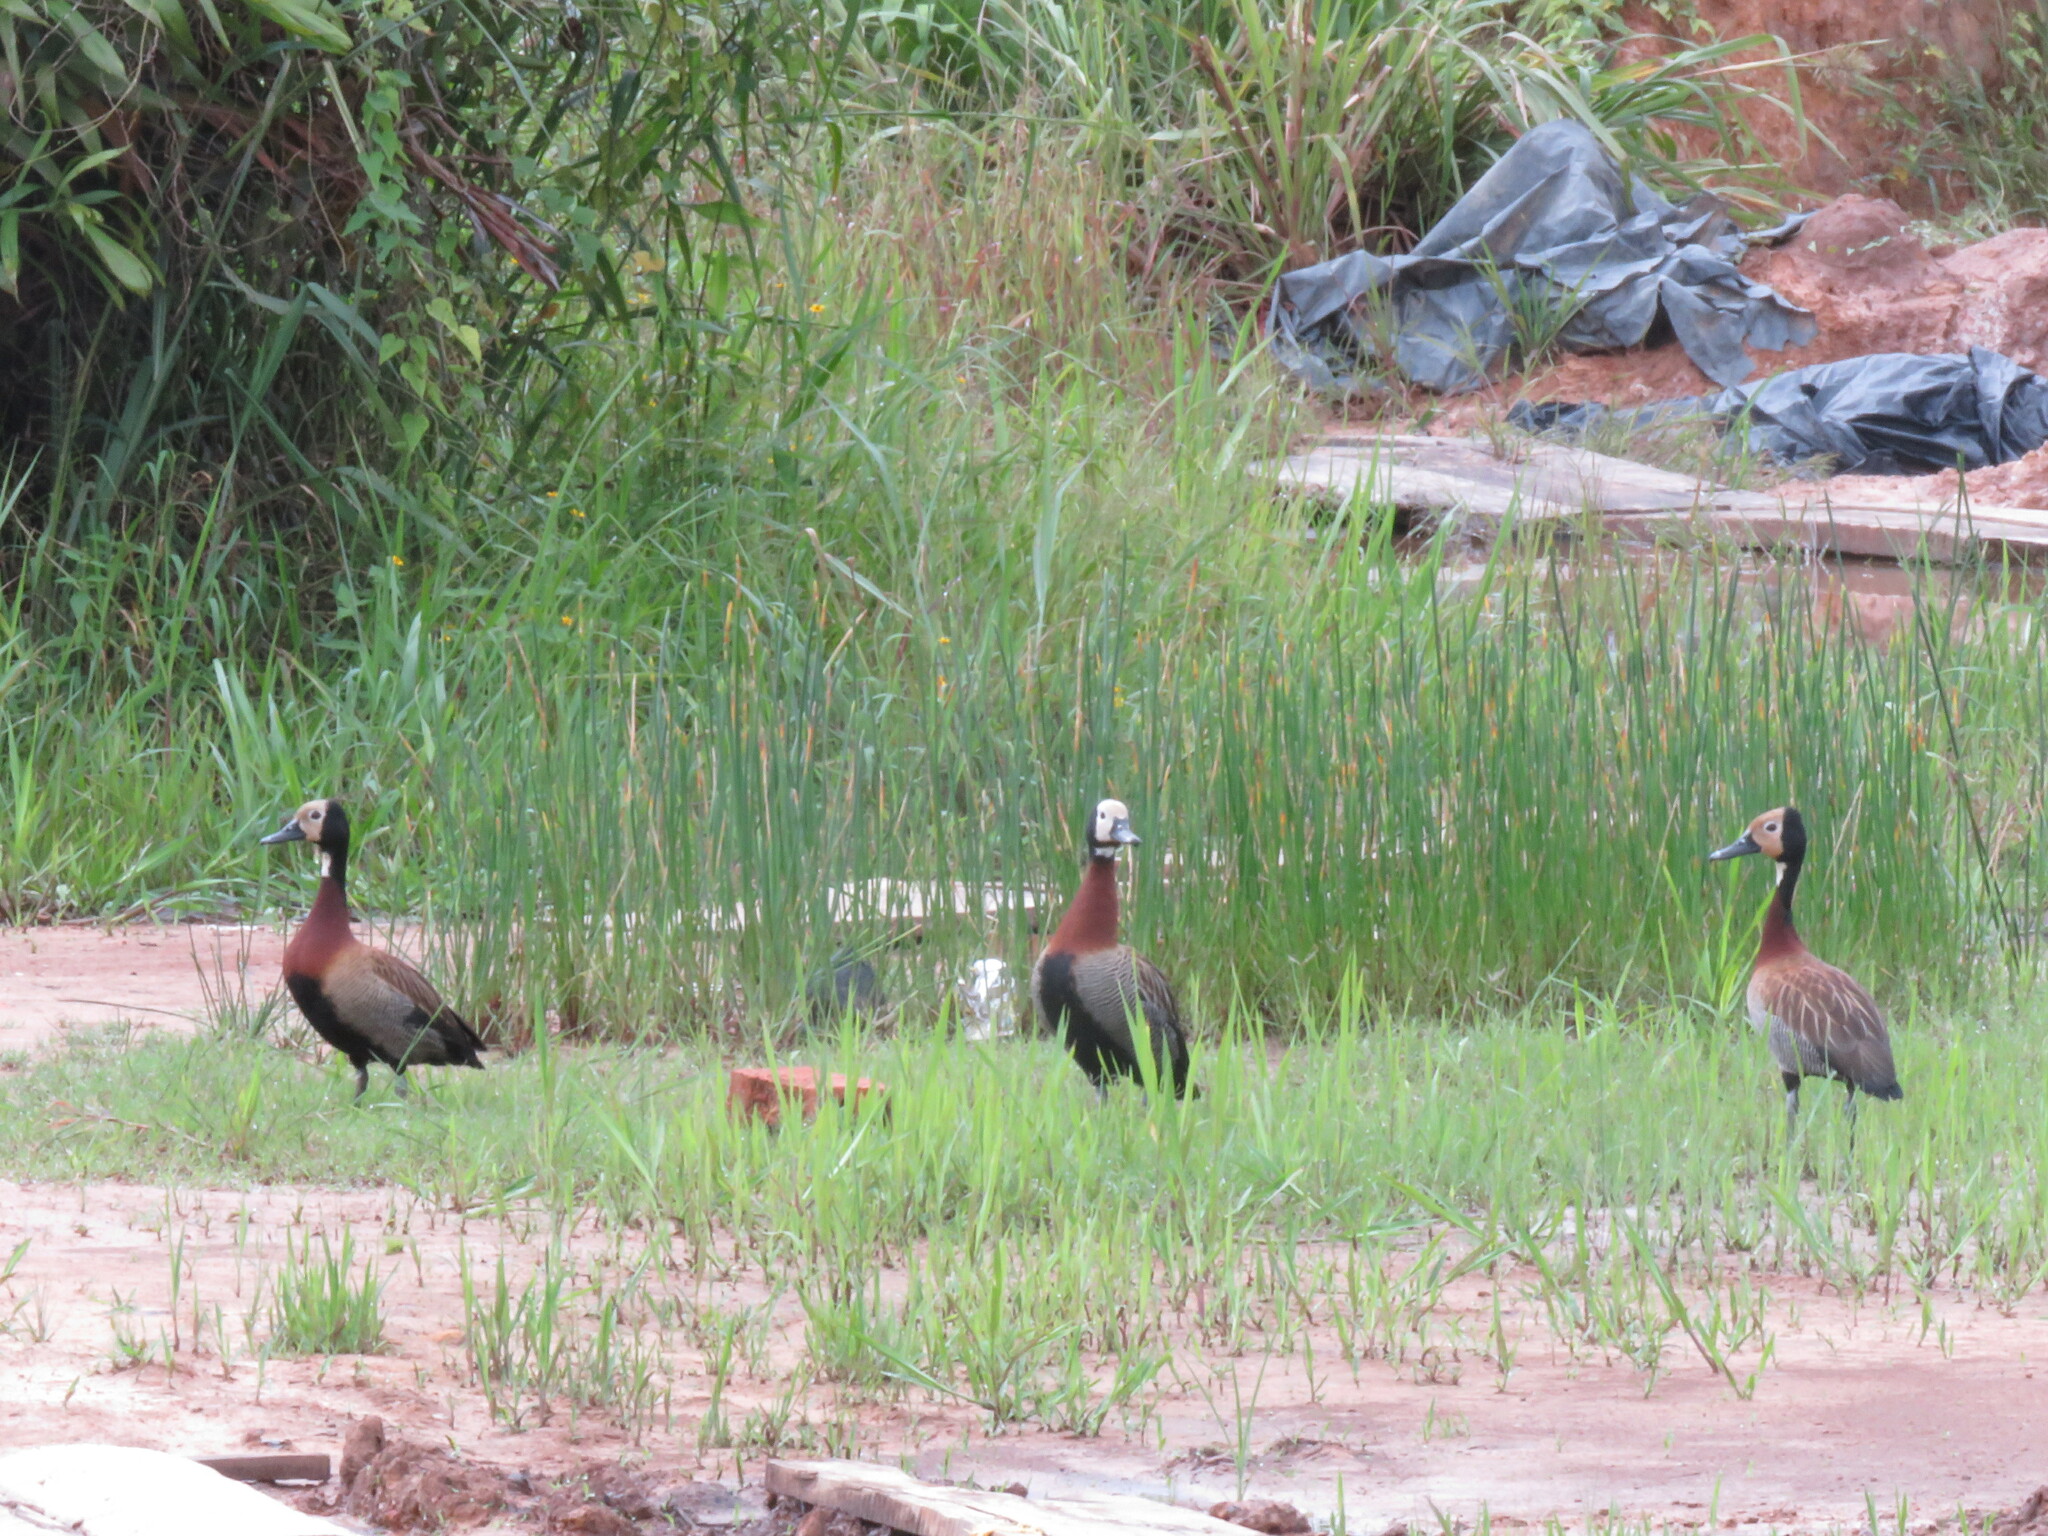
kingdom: Animalia
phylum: Chordata
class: Aves
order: Anseriformes
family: Anatidae
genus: Dendrocygna
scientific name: Dendrocygna viduata
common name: White-faced whistling duck
